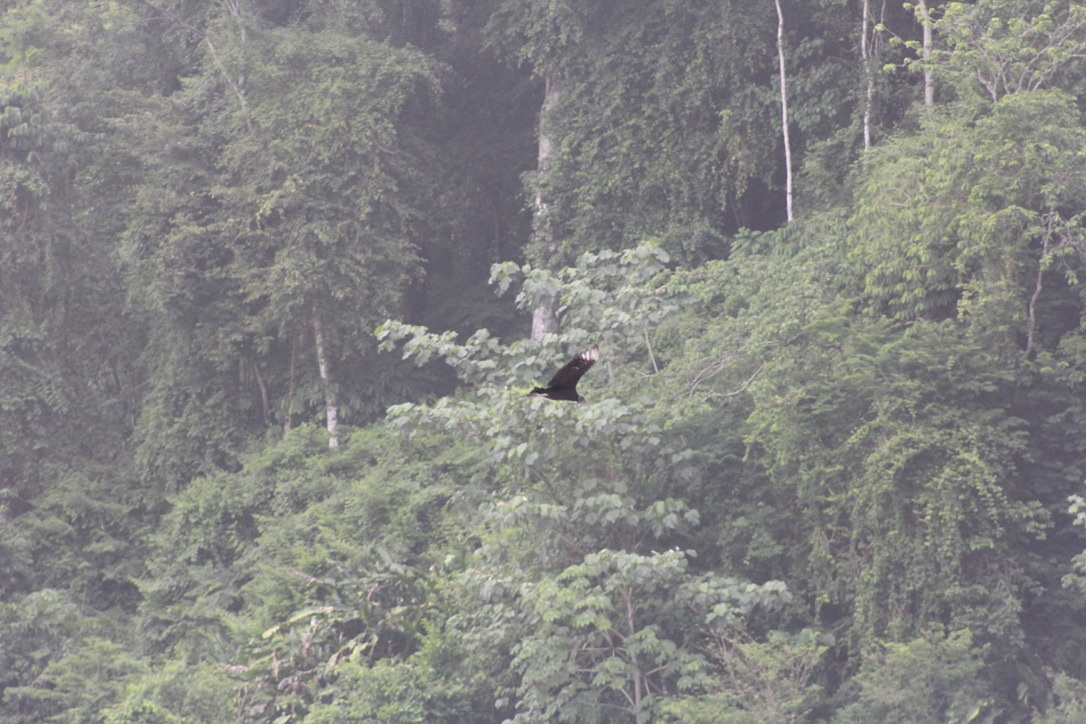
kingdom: Animalia
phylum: Chordata
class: Aves
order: Accipitriformes
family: Cathartidae
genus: Coragyps
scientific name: Coragyps atratus
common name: Black vulture
